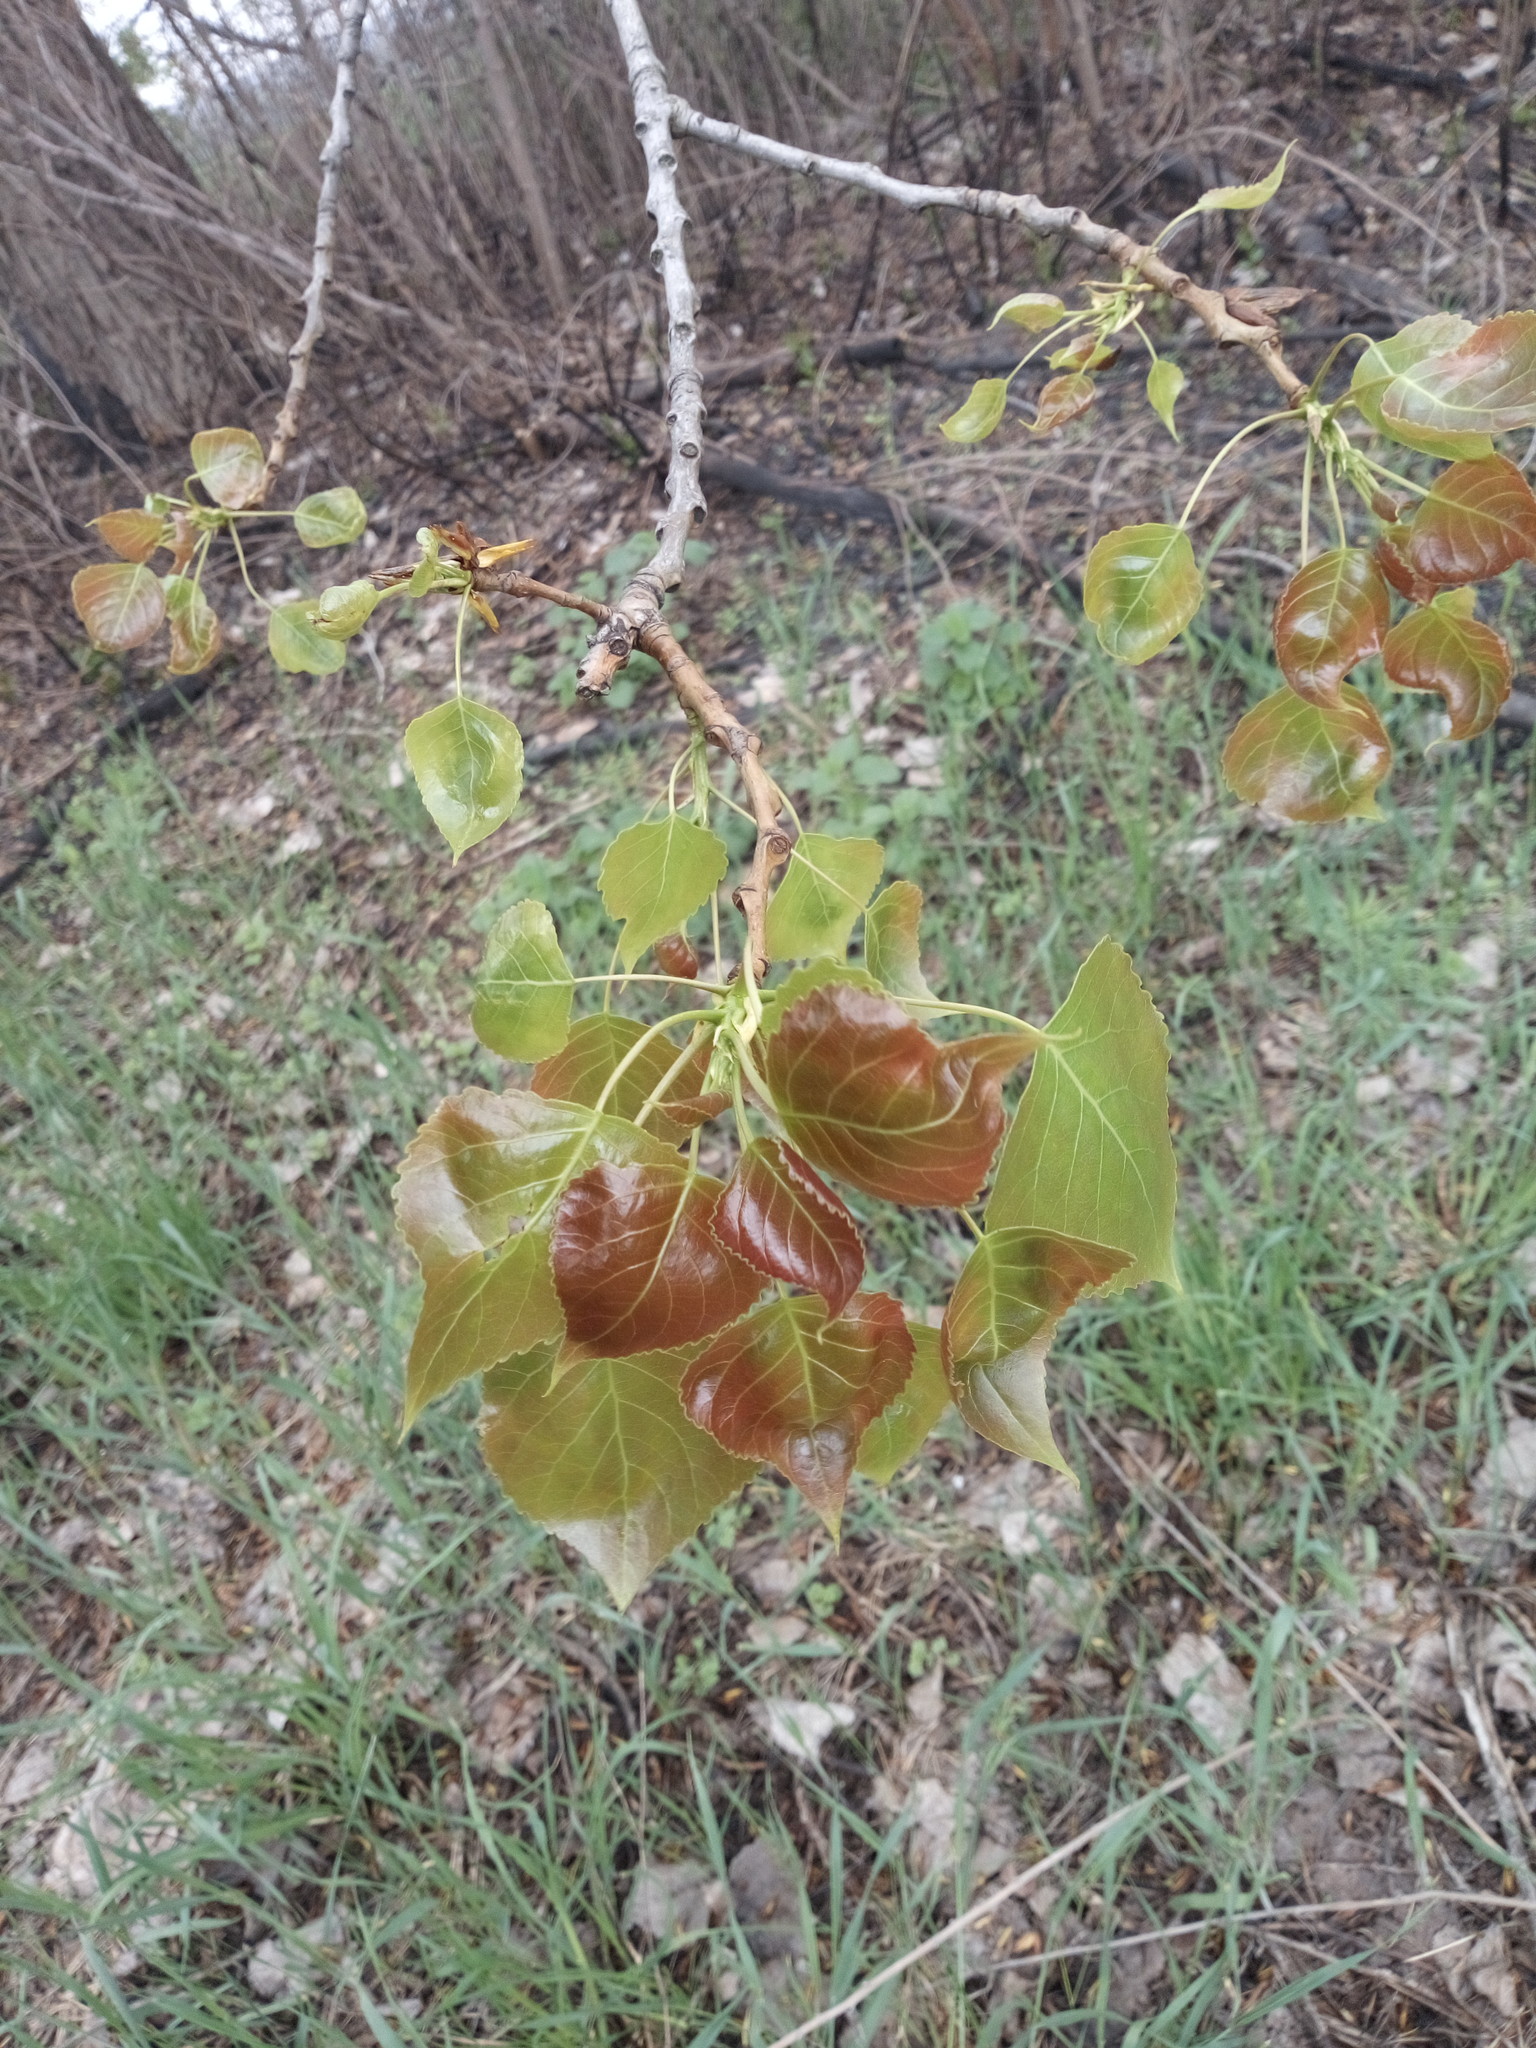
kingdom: Plantae
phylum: Tracheophyta
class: Magnoliopsida
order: Malpighiales
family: Salicaceae
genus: Populus
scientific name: Populus nigra
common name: Black poplar
